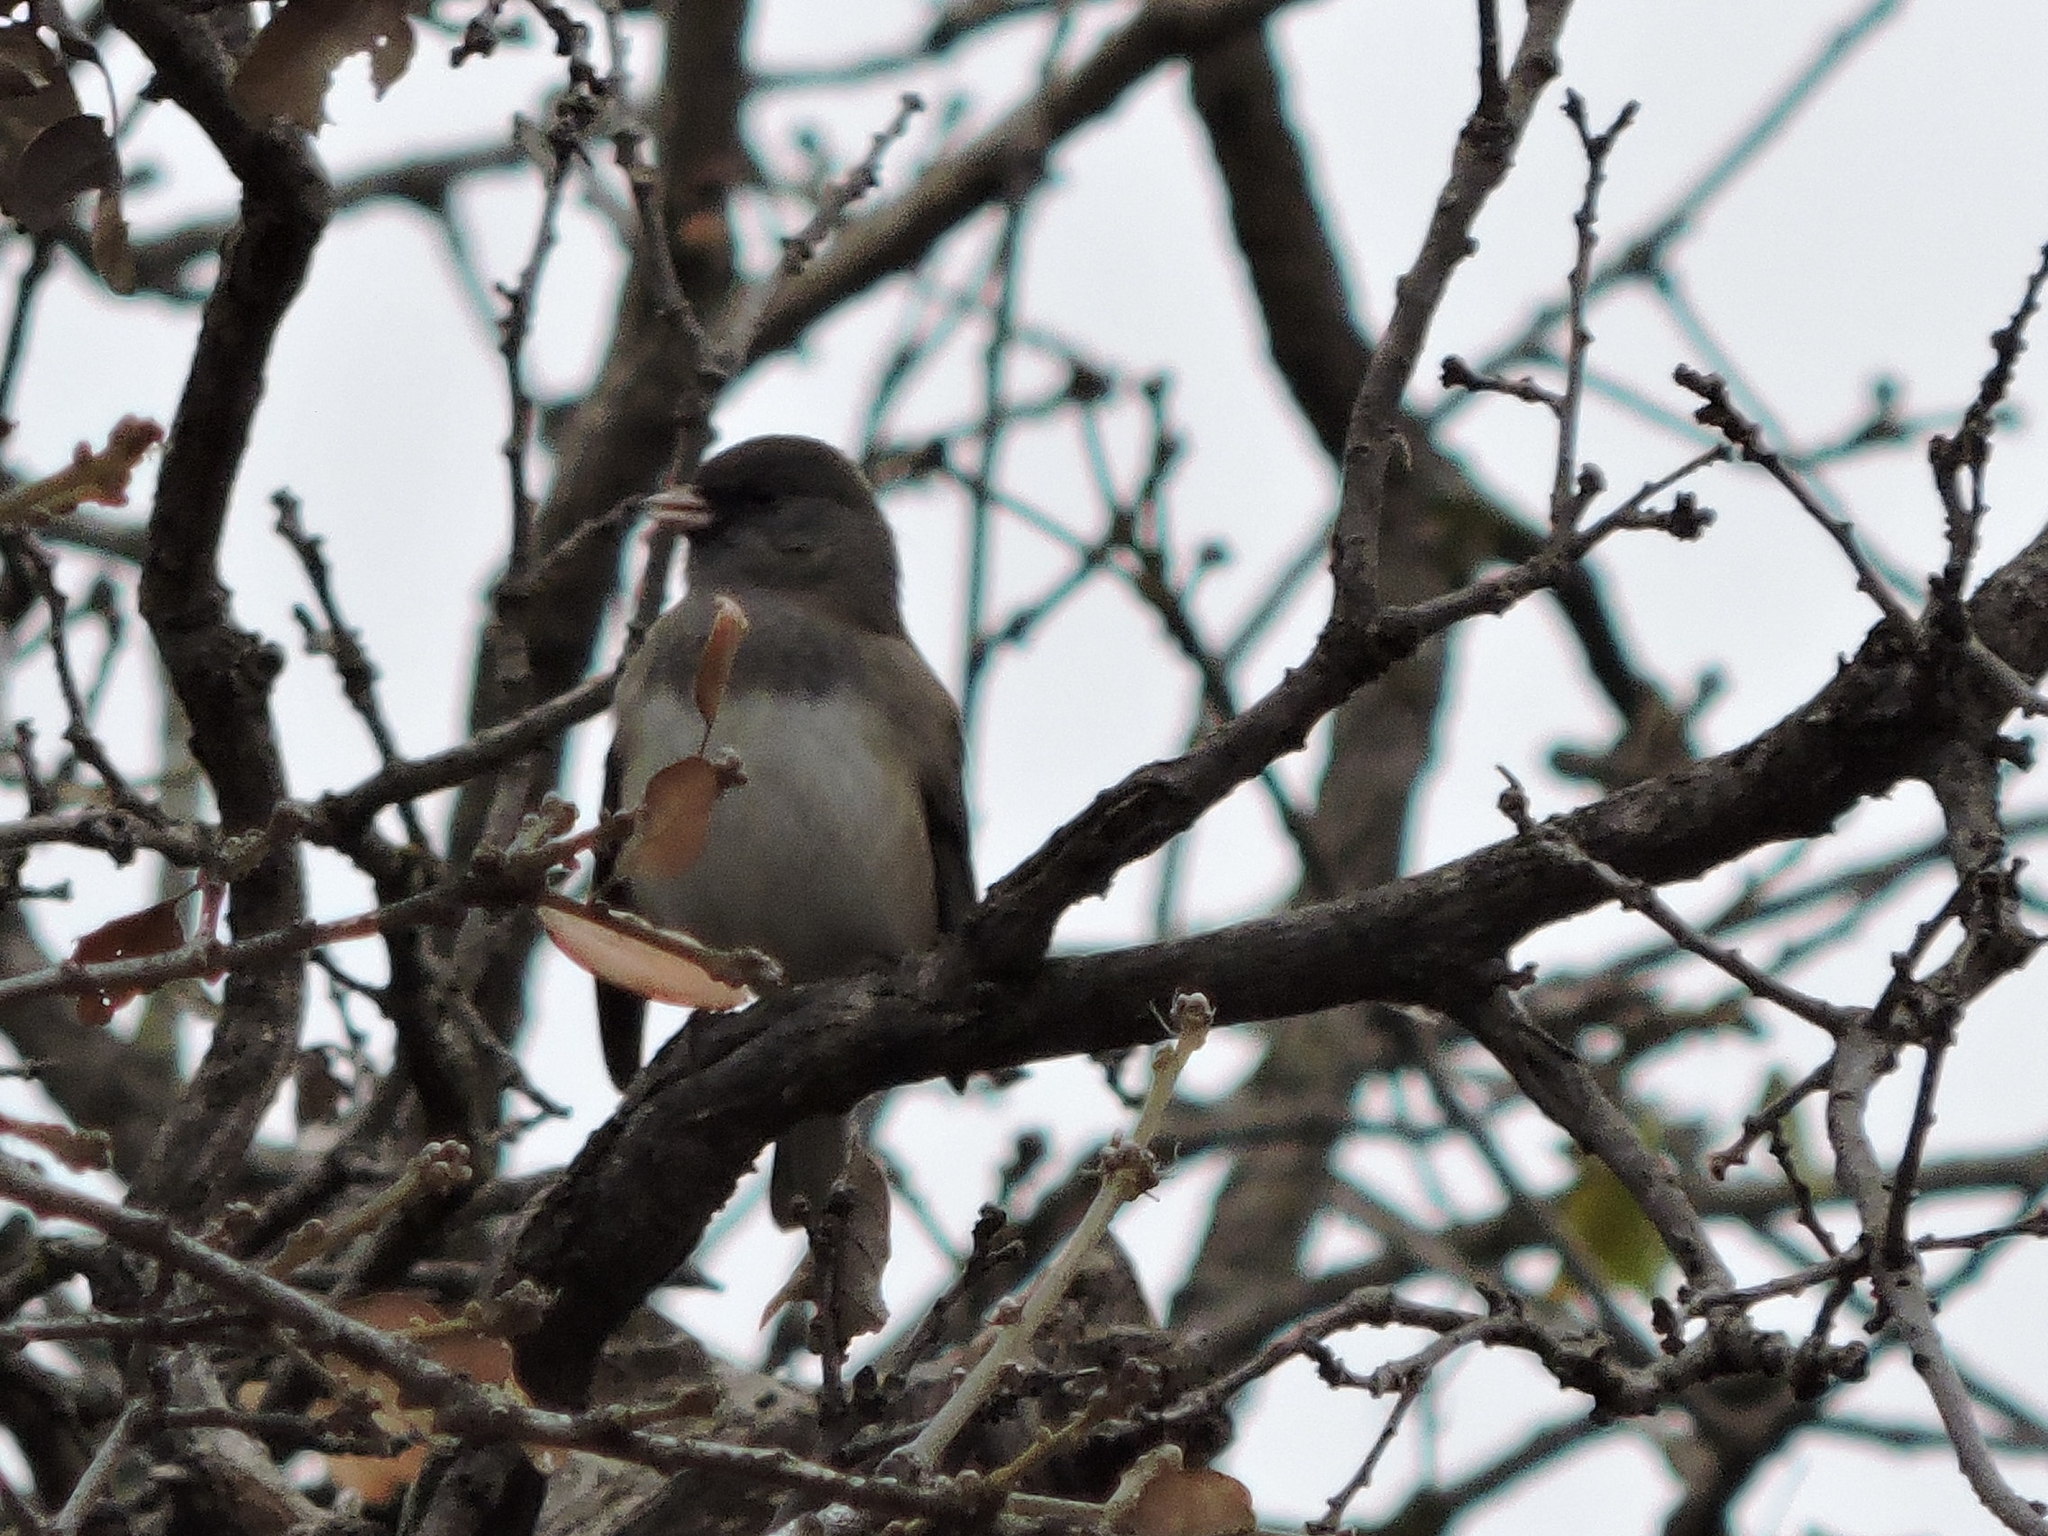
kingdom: Animalia
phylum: Chordata
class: Aves
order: Passeriformes
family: Passerellidae
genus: Junco
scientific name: Junco hyemalis
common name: Dark-eyed junco
